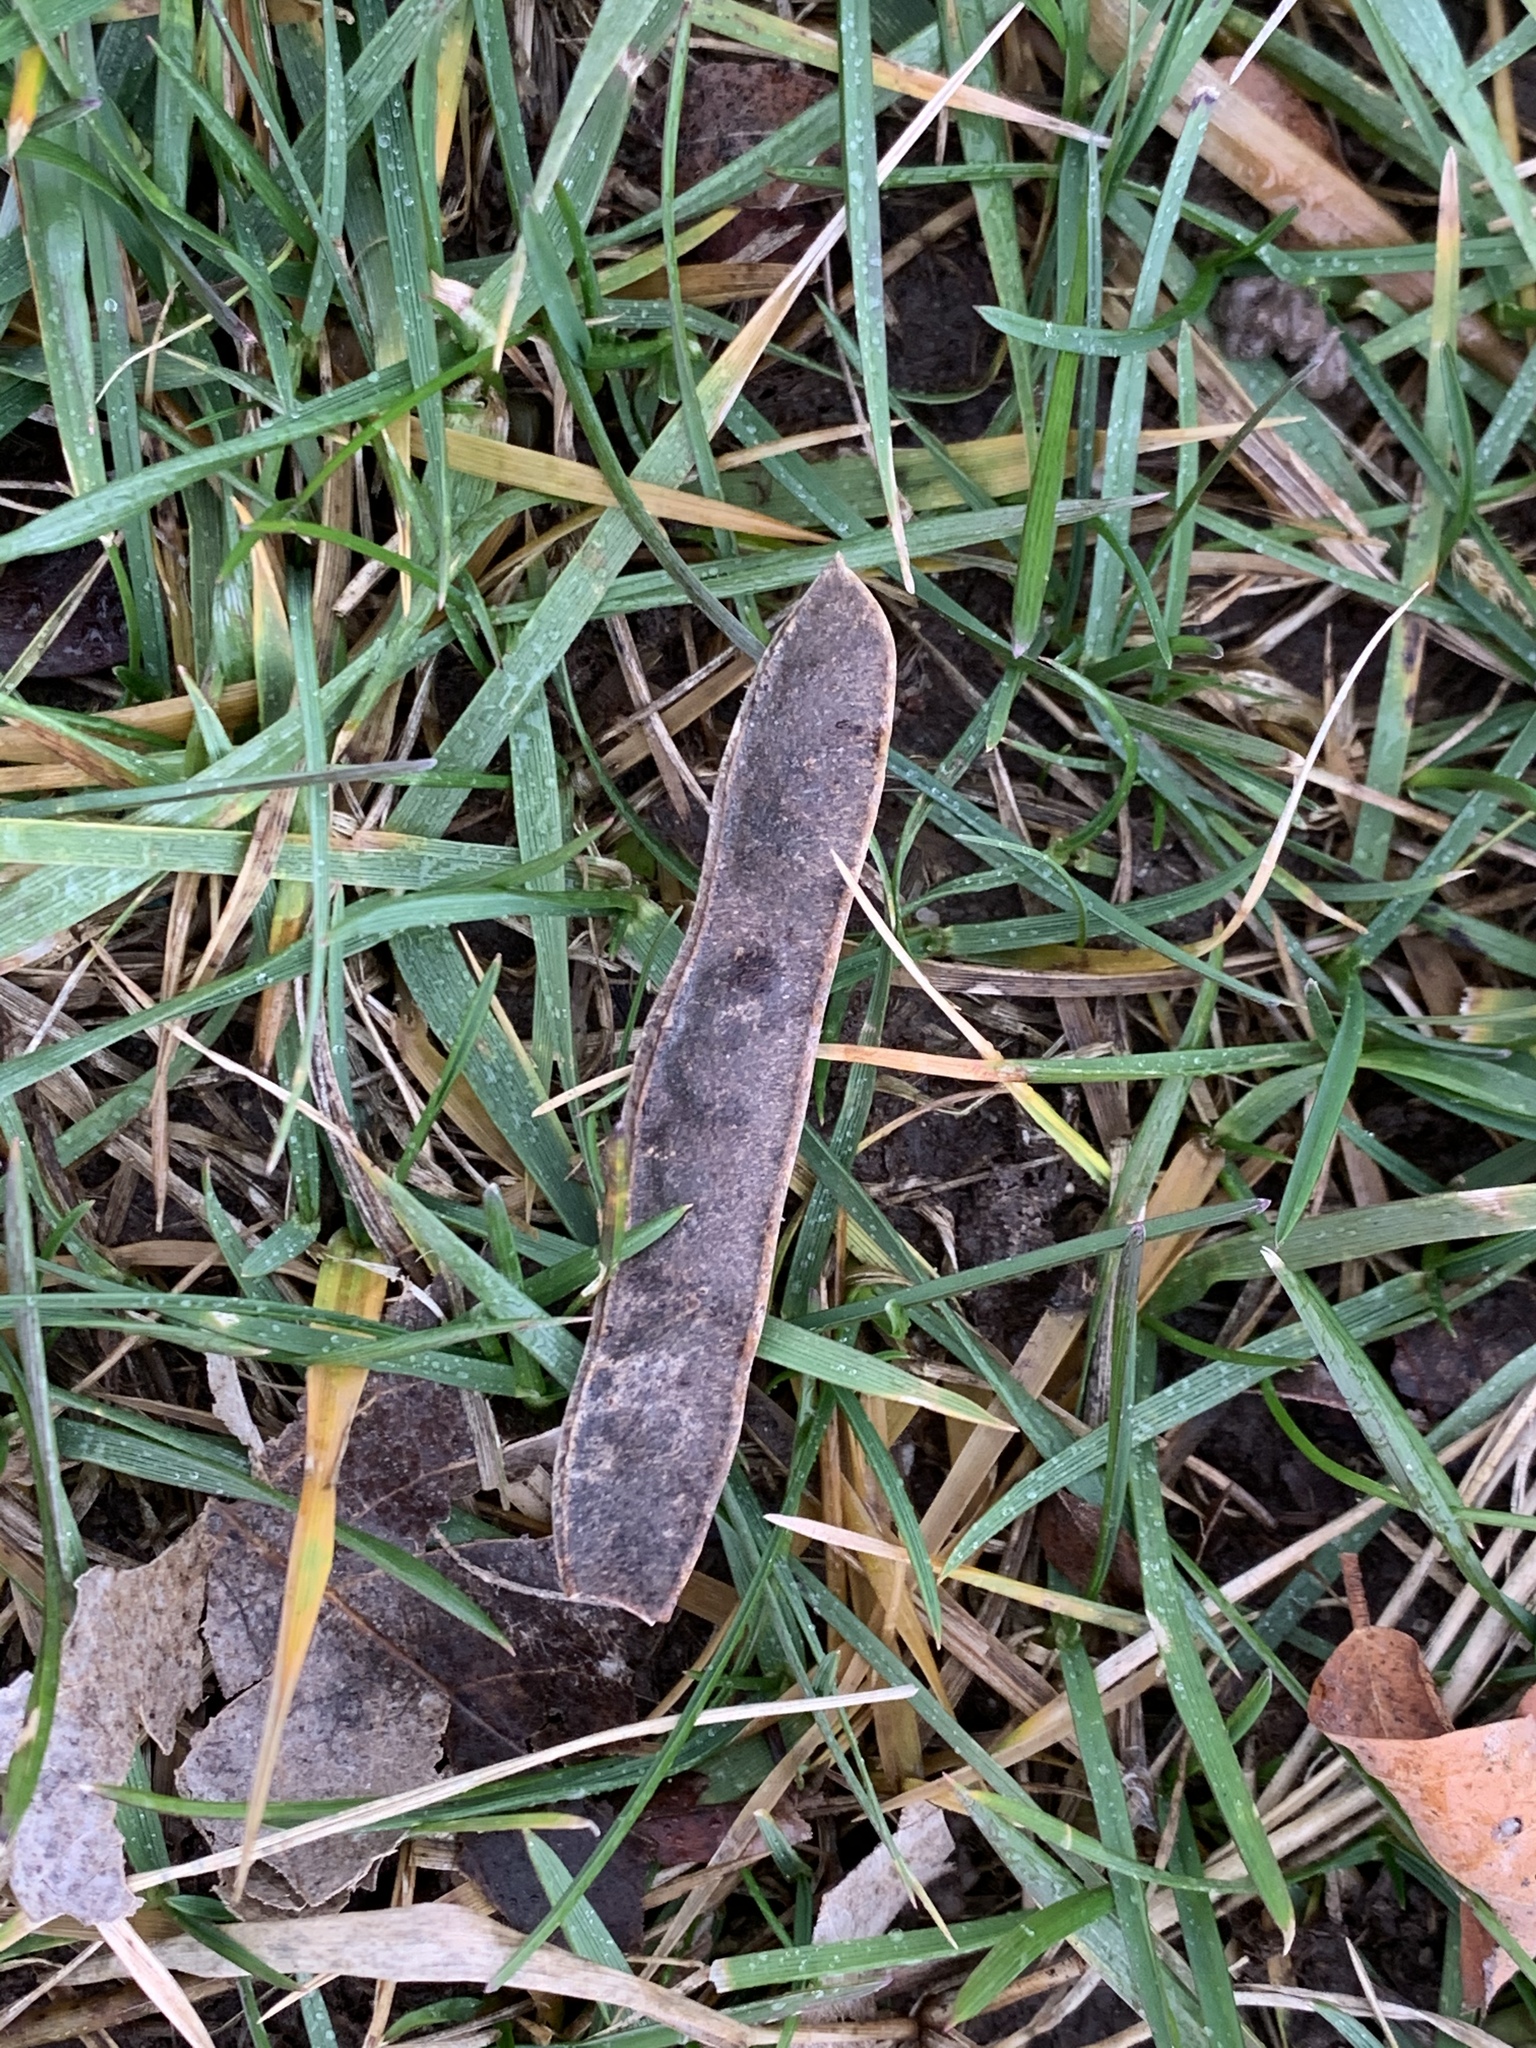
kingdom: Plantae
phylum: Tracheophyta
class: Magnoliopsida
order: Fabales
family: Fabaceae
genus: Robinia
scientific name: Robinia pseudoacacia
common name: Black locust
